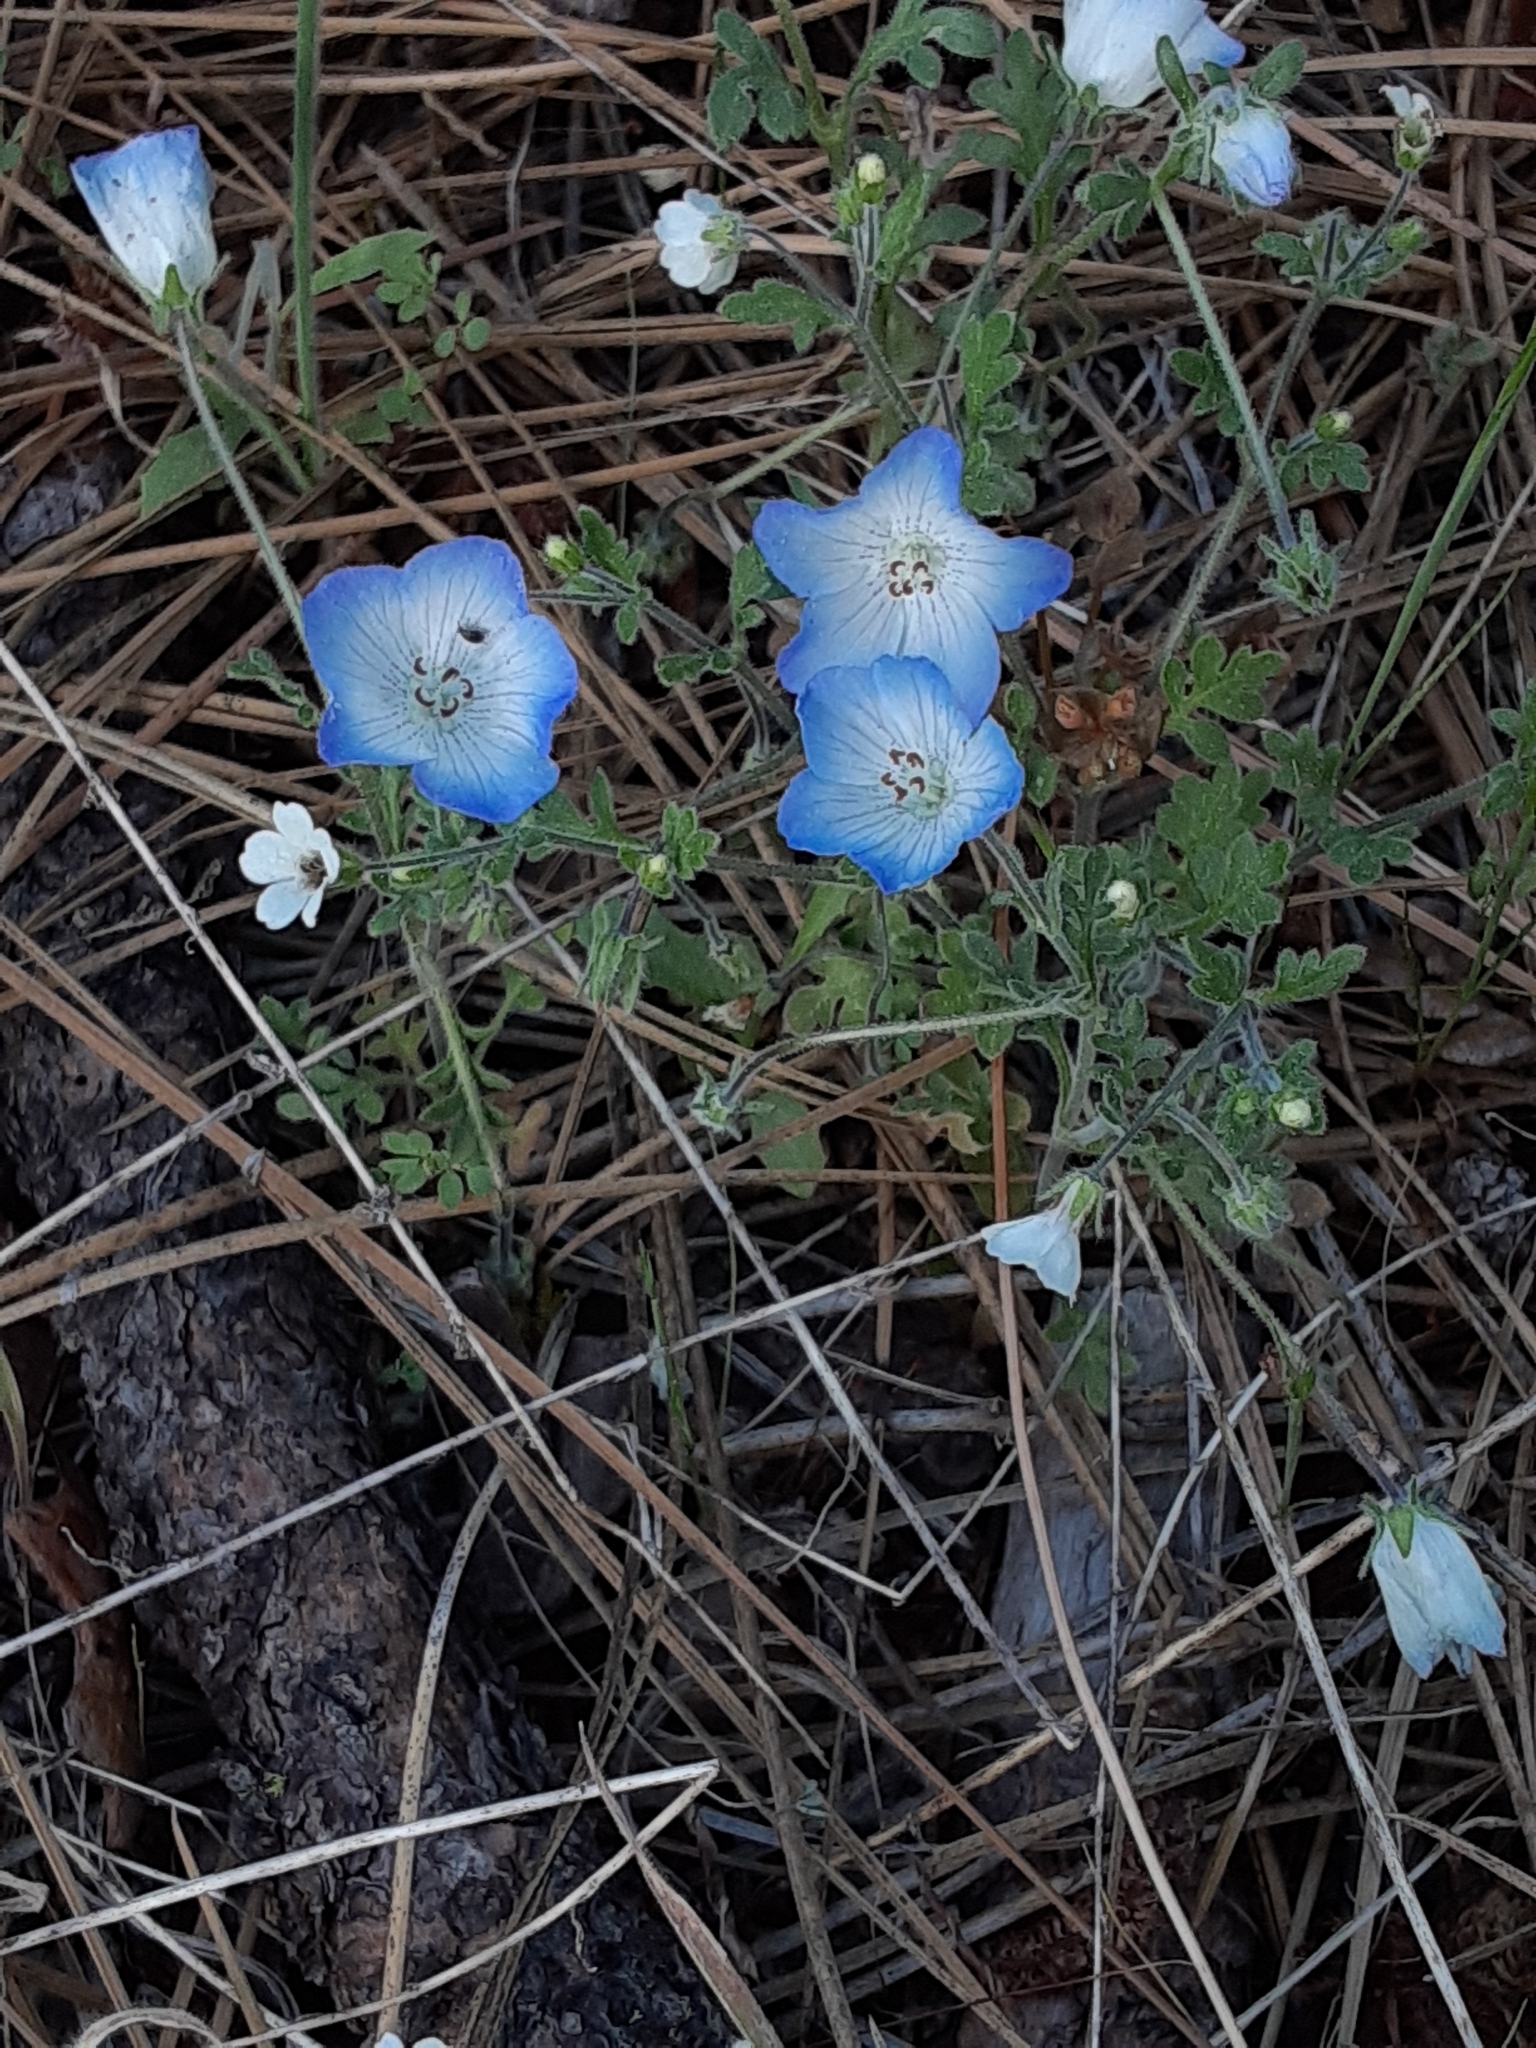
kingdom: Plantae
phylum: Tracheophyta
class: Magnoliopsida
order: Boraginales
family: Hydrophyllaceae
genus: Nemophila
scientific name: Nemophila menziesii
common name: Baby's-blue-eyes
